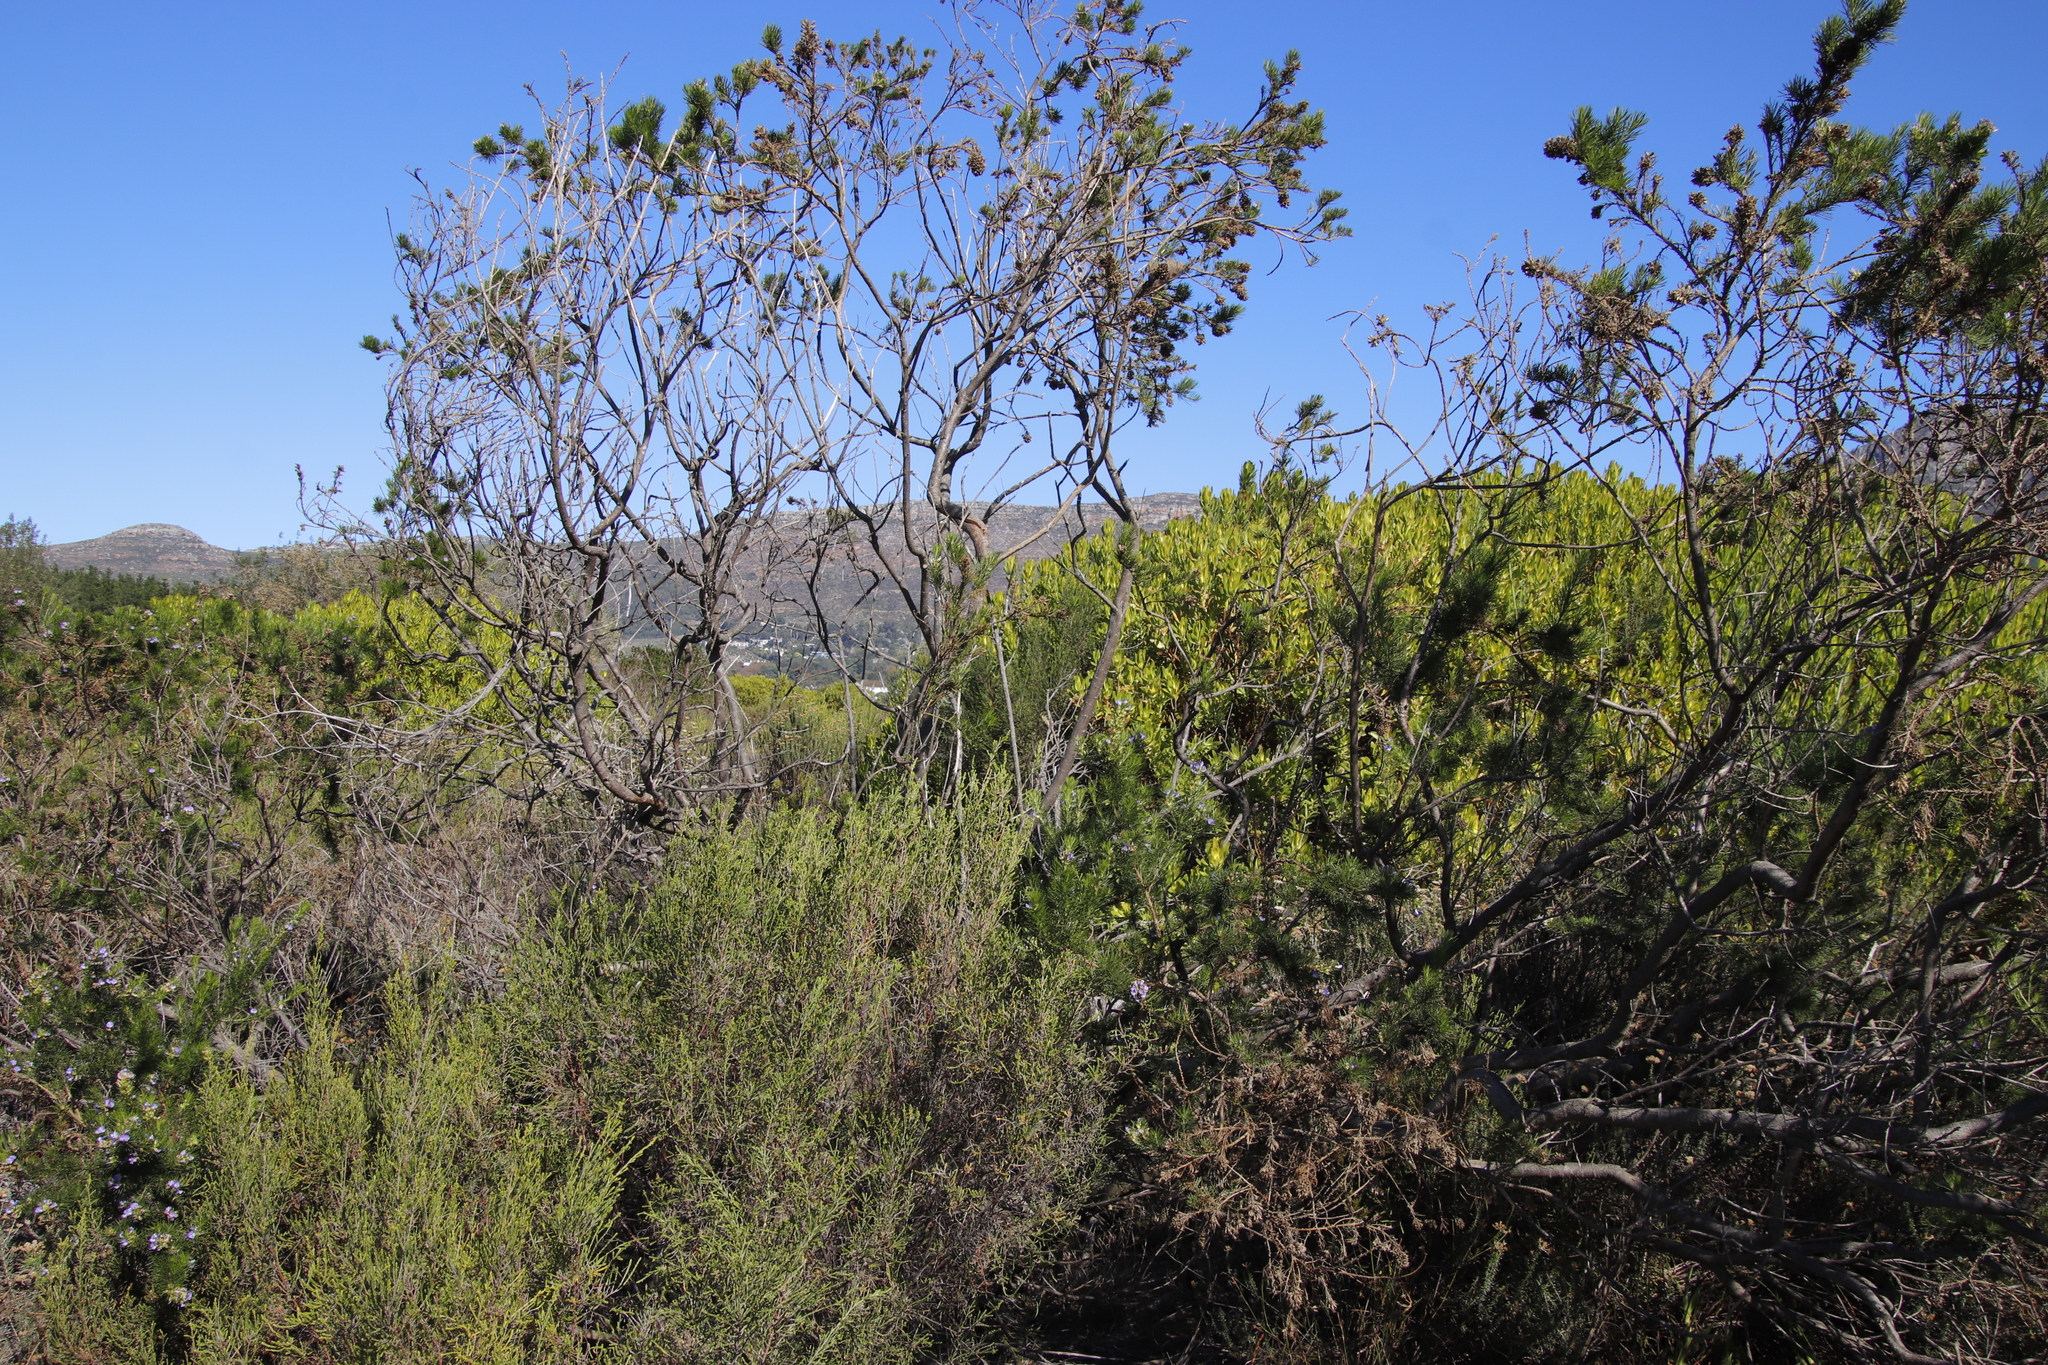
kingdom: Plantae
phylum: Tracheophyta
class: Magnoliopsida
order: Fabales
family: Fabaceae
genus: Psoralea
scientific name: Psoralea pinnata
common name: African scurfpea
